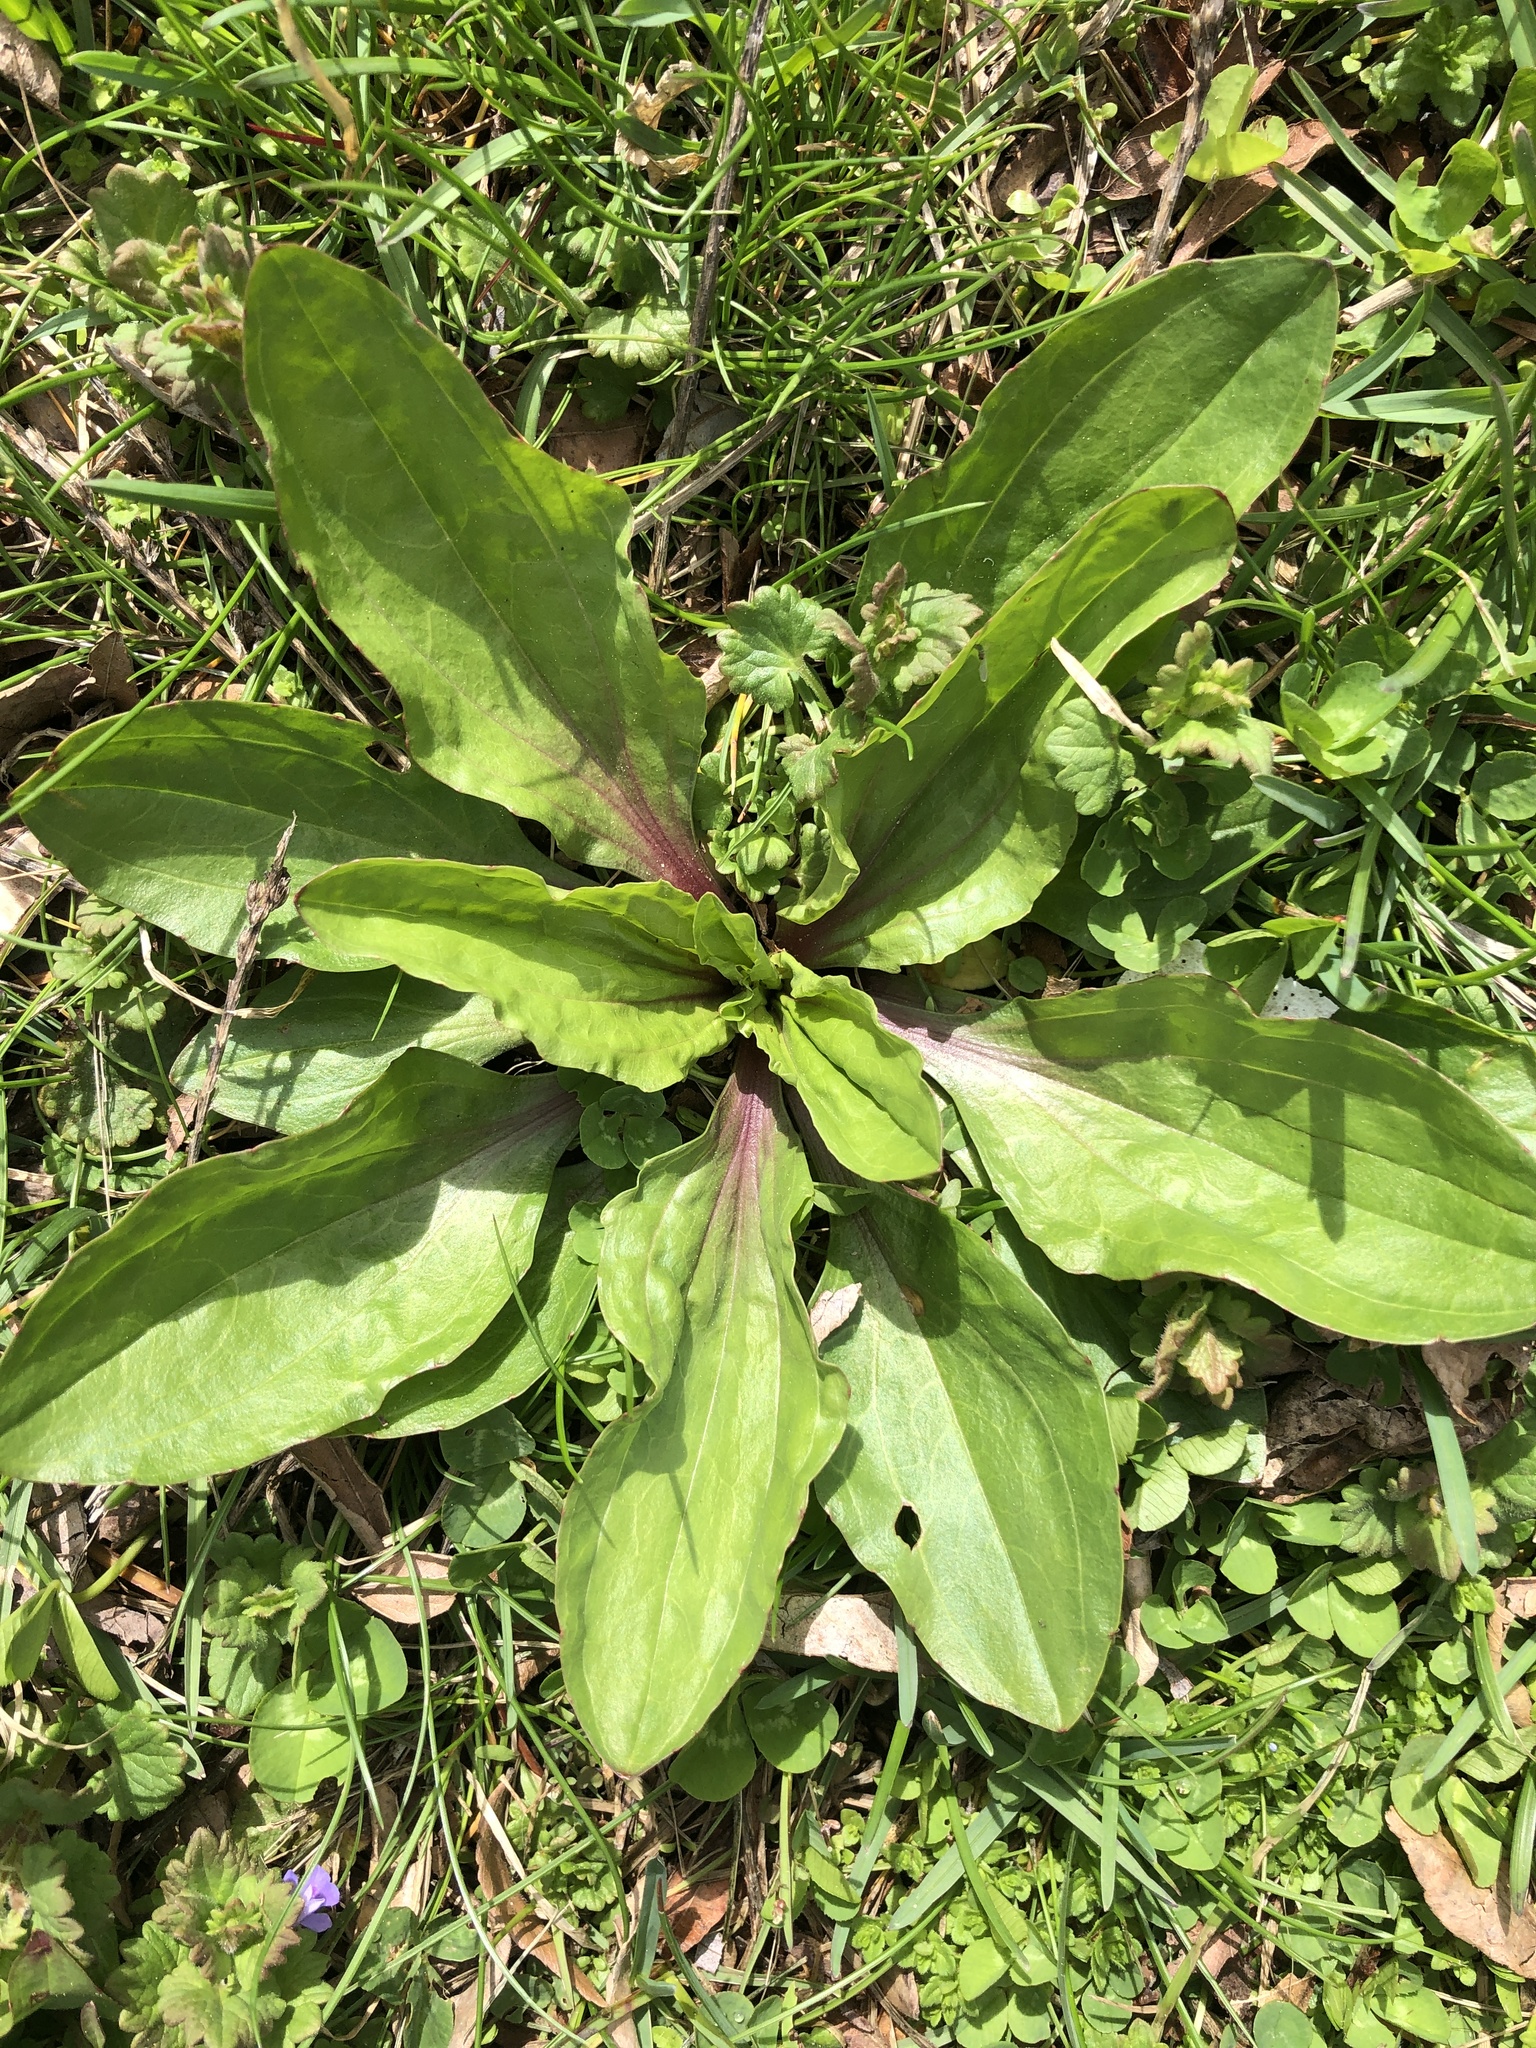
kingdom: Plantae
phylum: Tracheophyta
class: Magnoliopsida
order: Lamiales
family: Plantaginaceae
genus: Plantago
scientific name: Plantago rugelii
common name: American plantain
